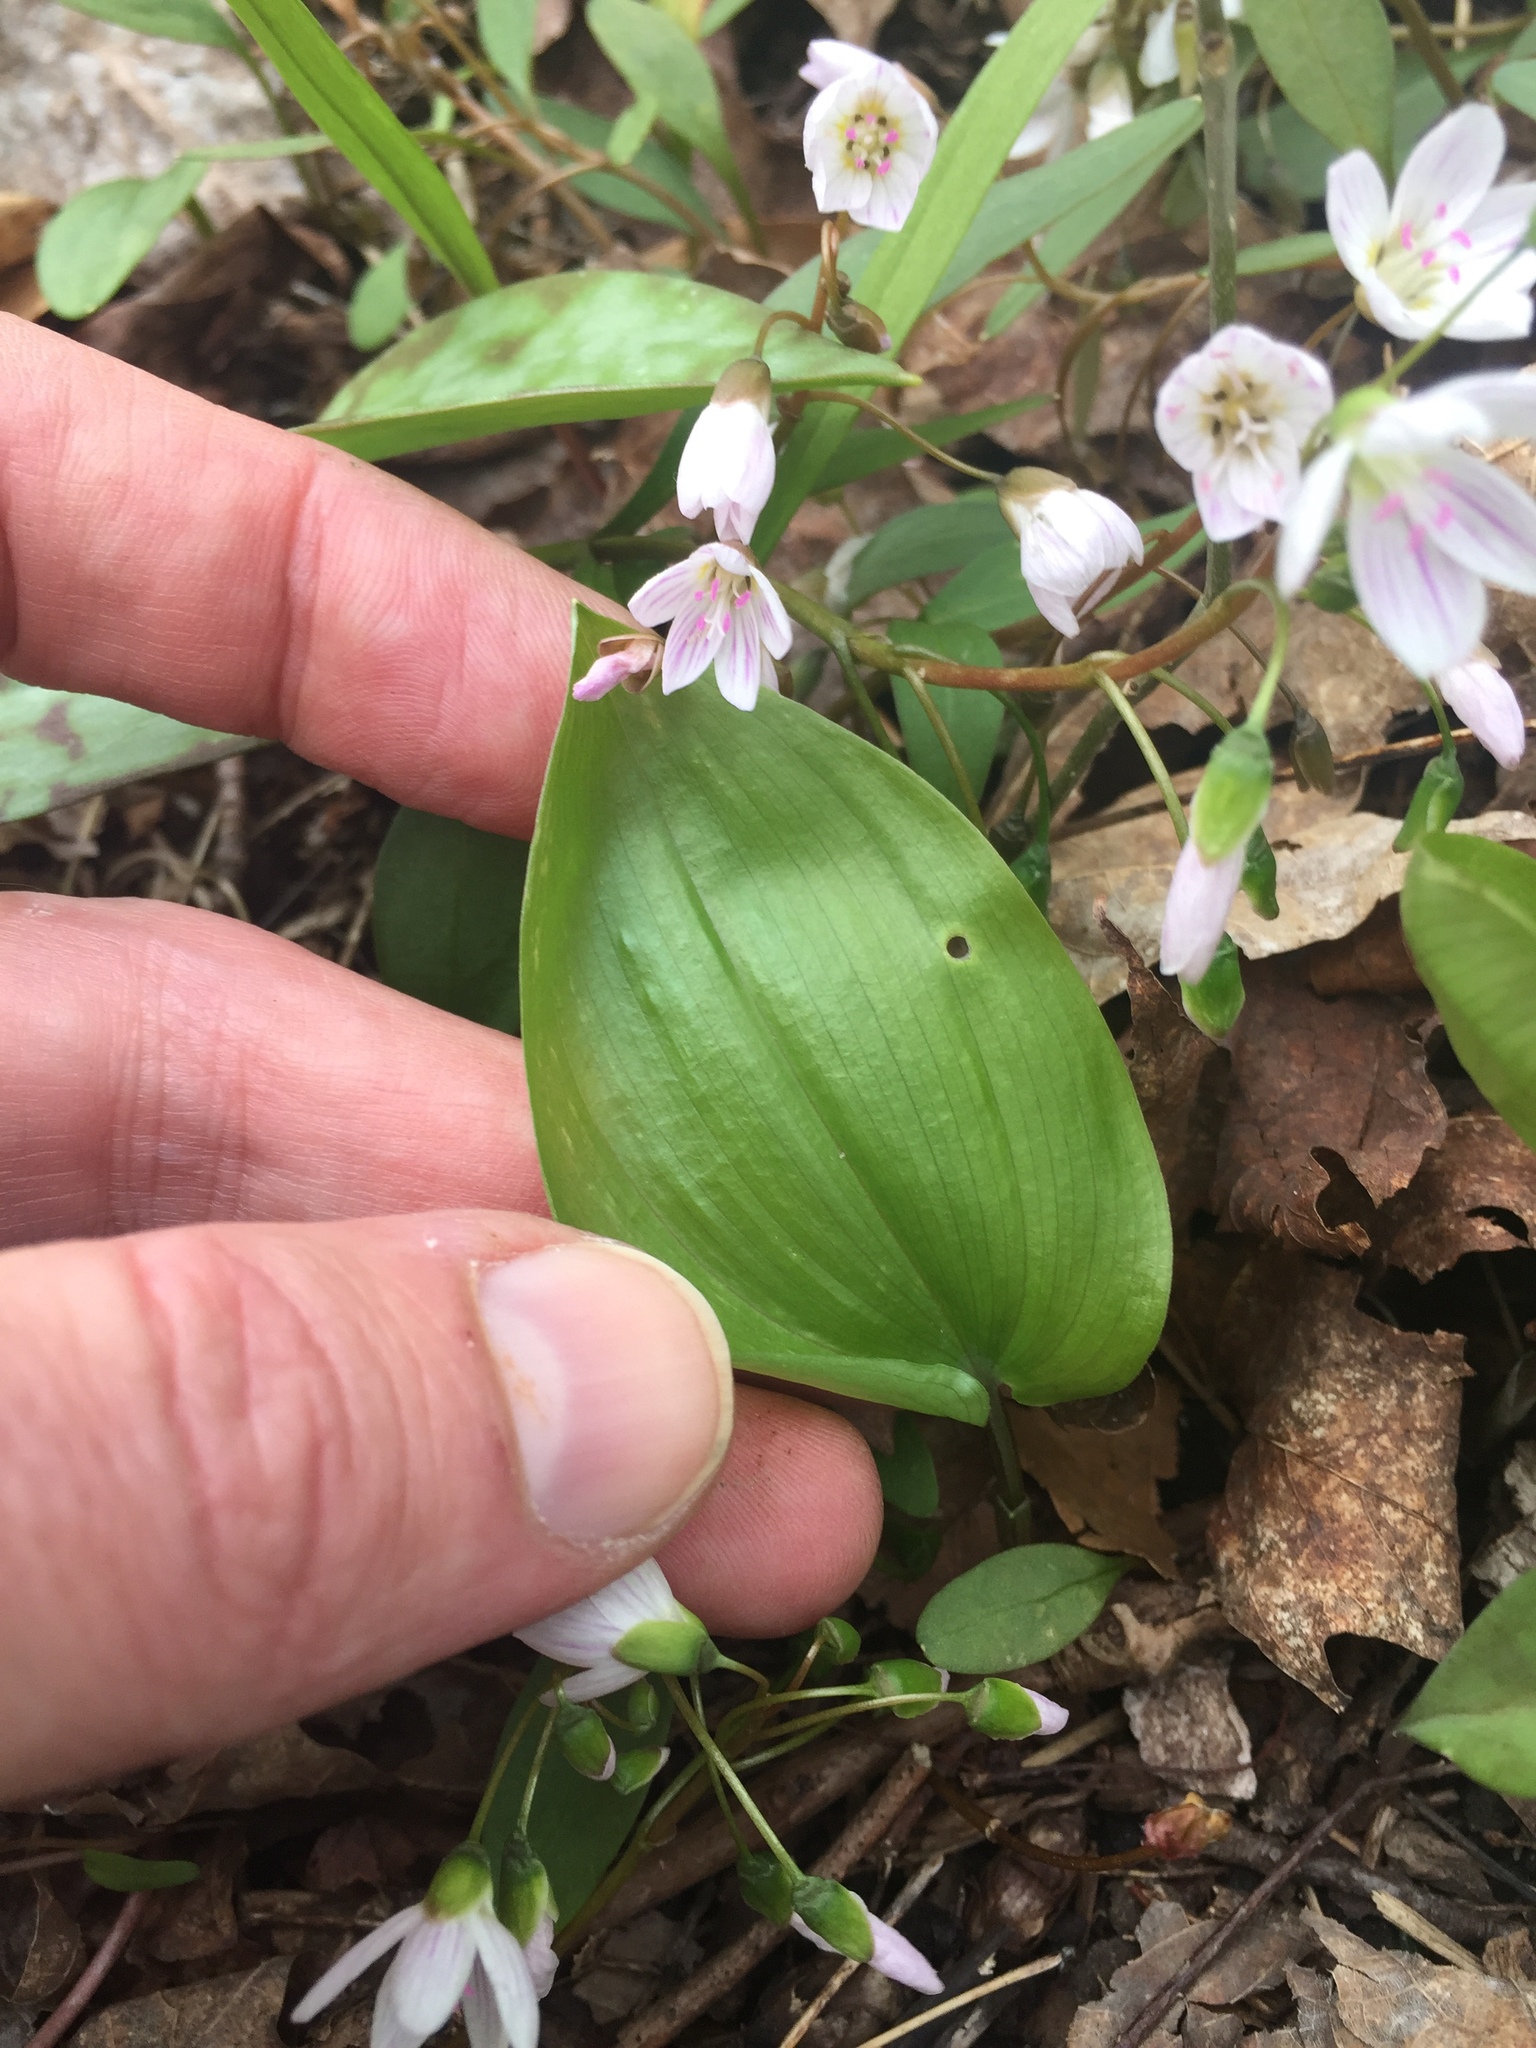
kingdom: Plantae
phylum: Tracheophyta
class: Liliopsida
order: Asparagales
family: Asparagaceae
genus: Maianthemum
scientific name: Maianthemum canadense
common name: False lily-of-the-valley
